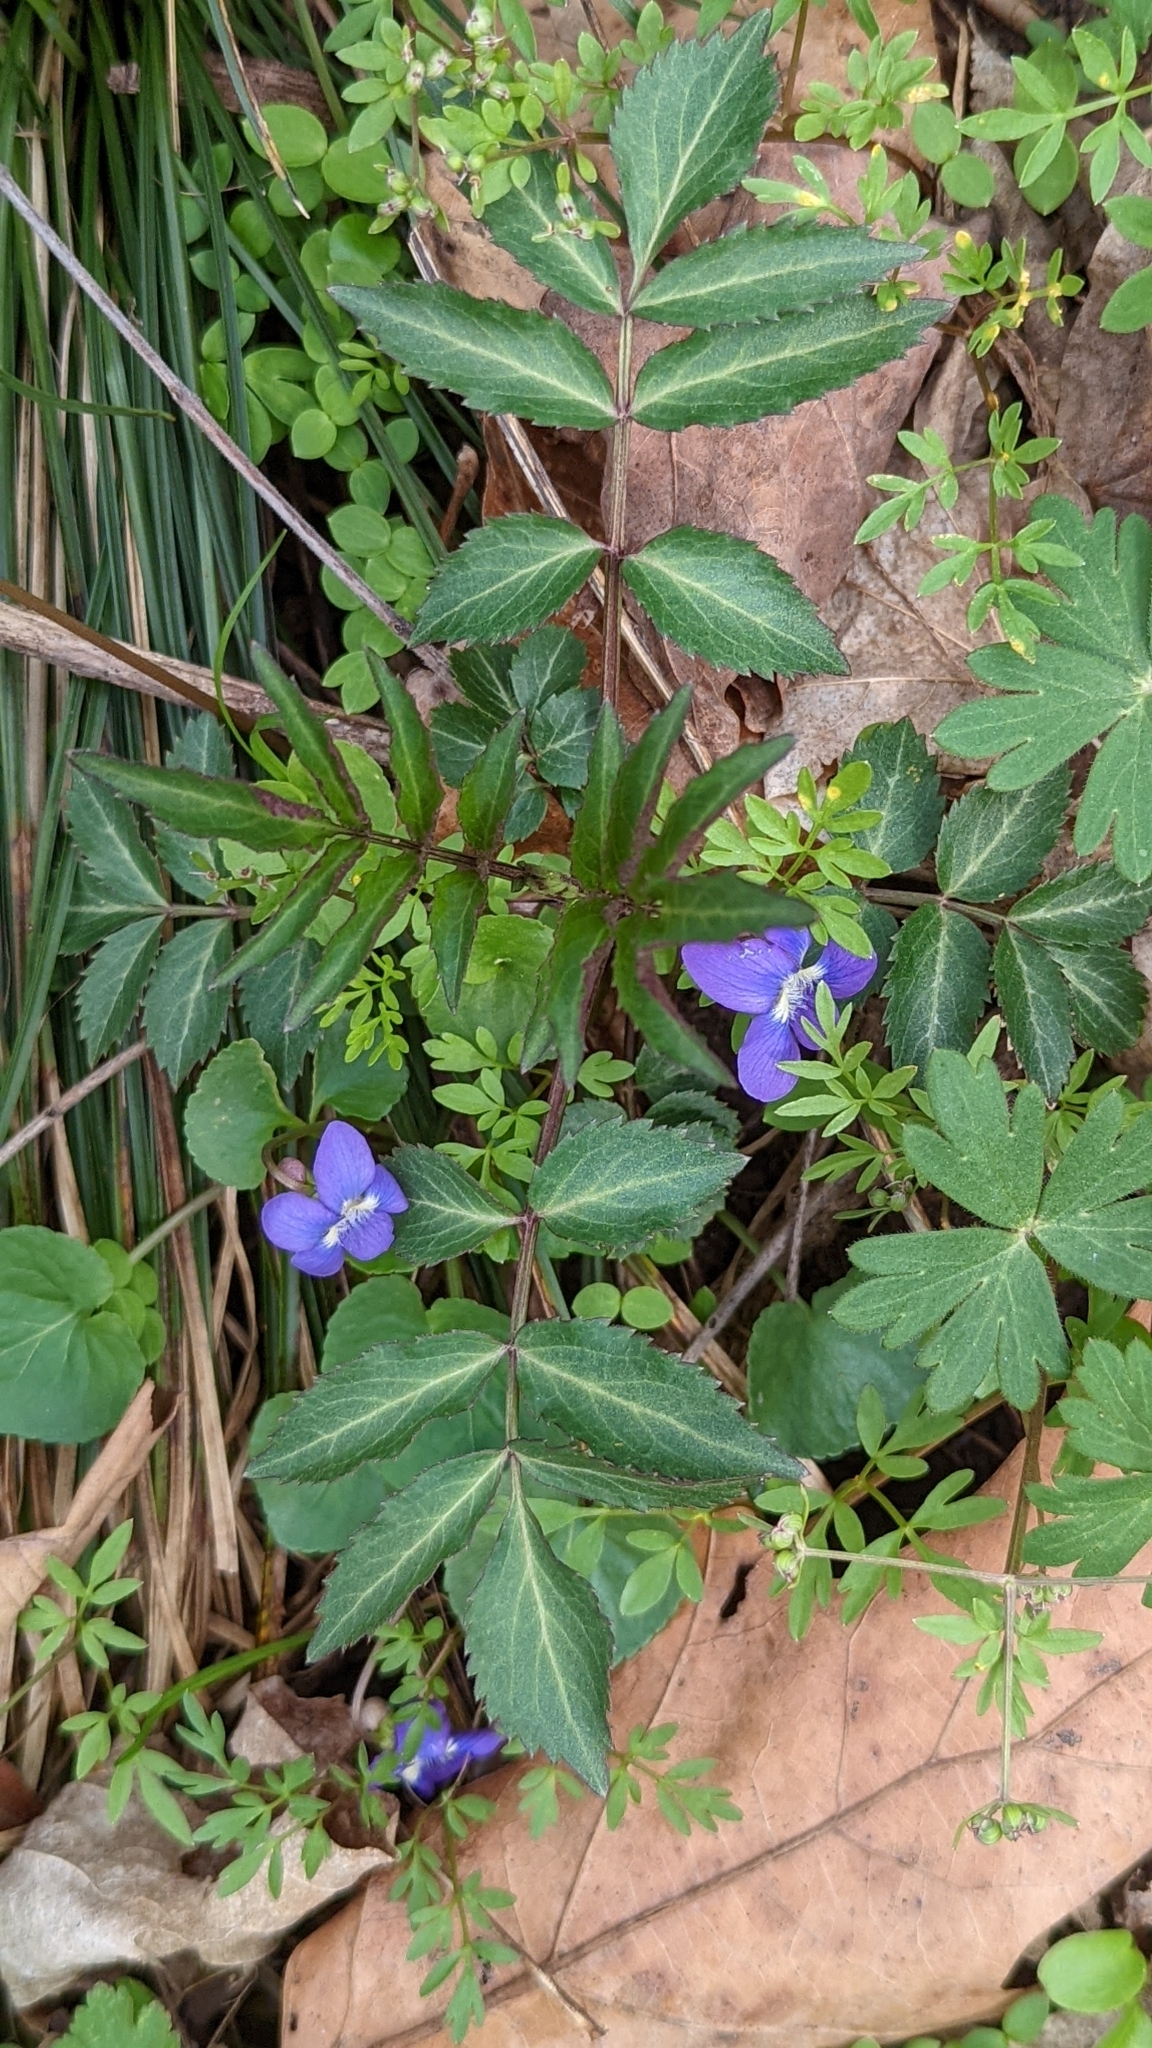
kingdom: Plantae
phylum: Tracheophyta
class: Magnoliopsida
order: Dipsacales
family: Viburnaceae
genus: Sambucus
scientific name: Sambucus canadensis
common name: American elder
